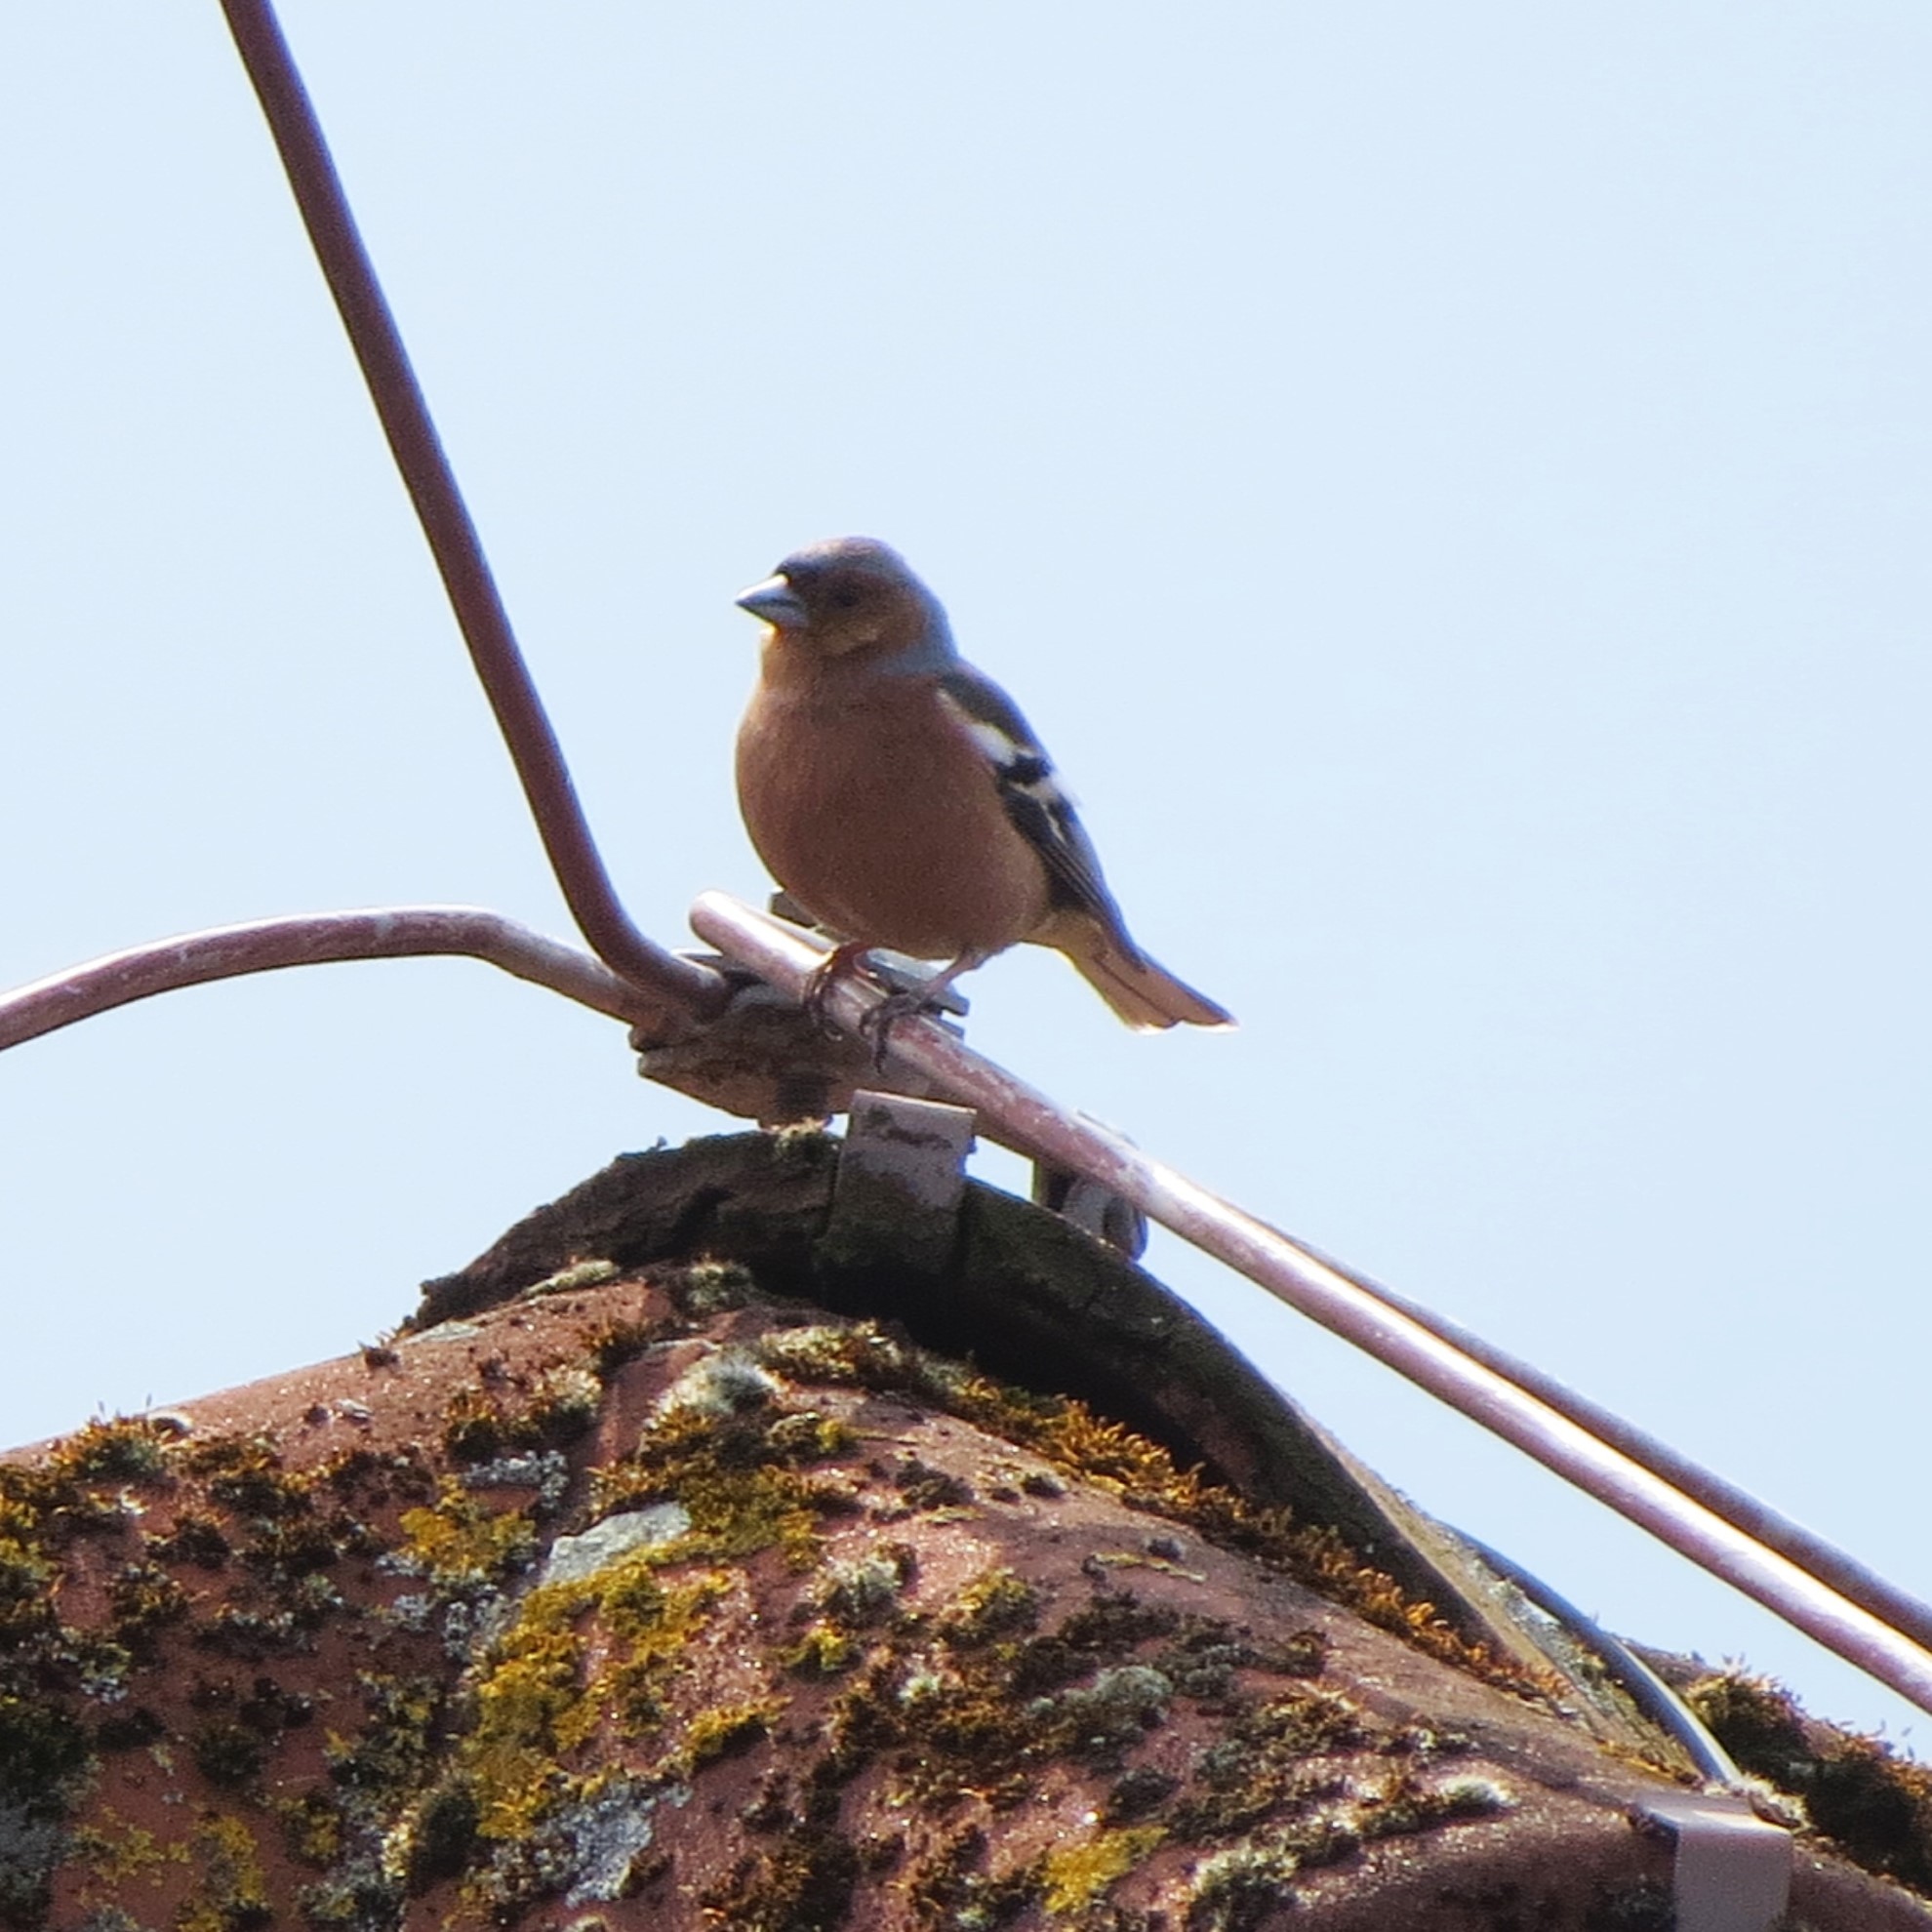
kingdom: Animalia
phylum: Chordata
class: Aves
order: Passeriformes
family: Fringillidae
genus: Fringilla
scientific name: Fringilla coelebs
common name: Common chaffinch
